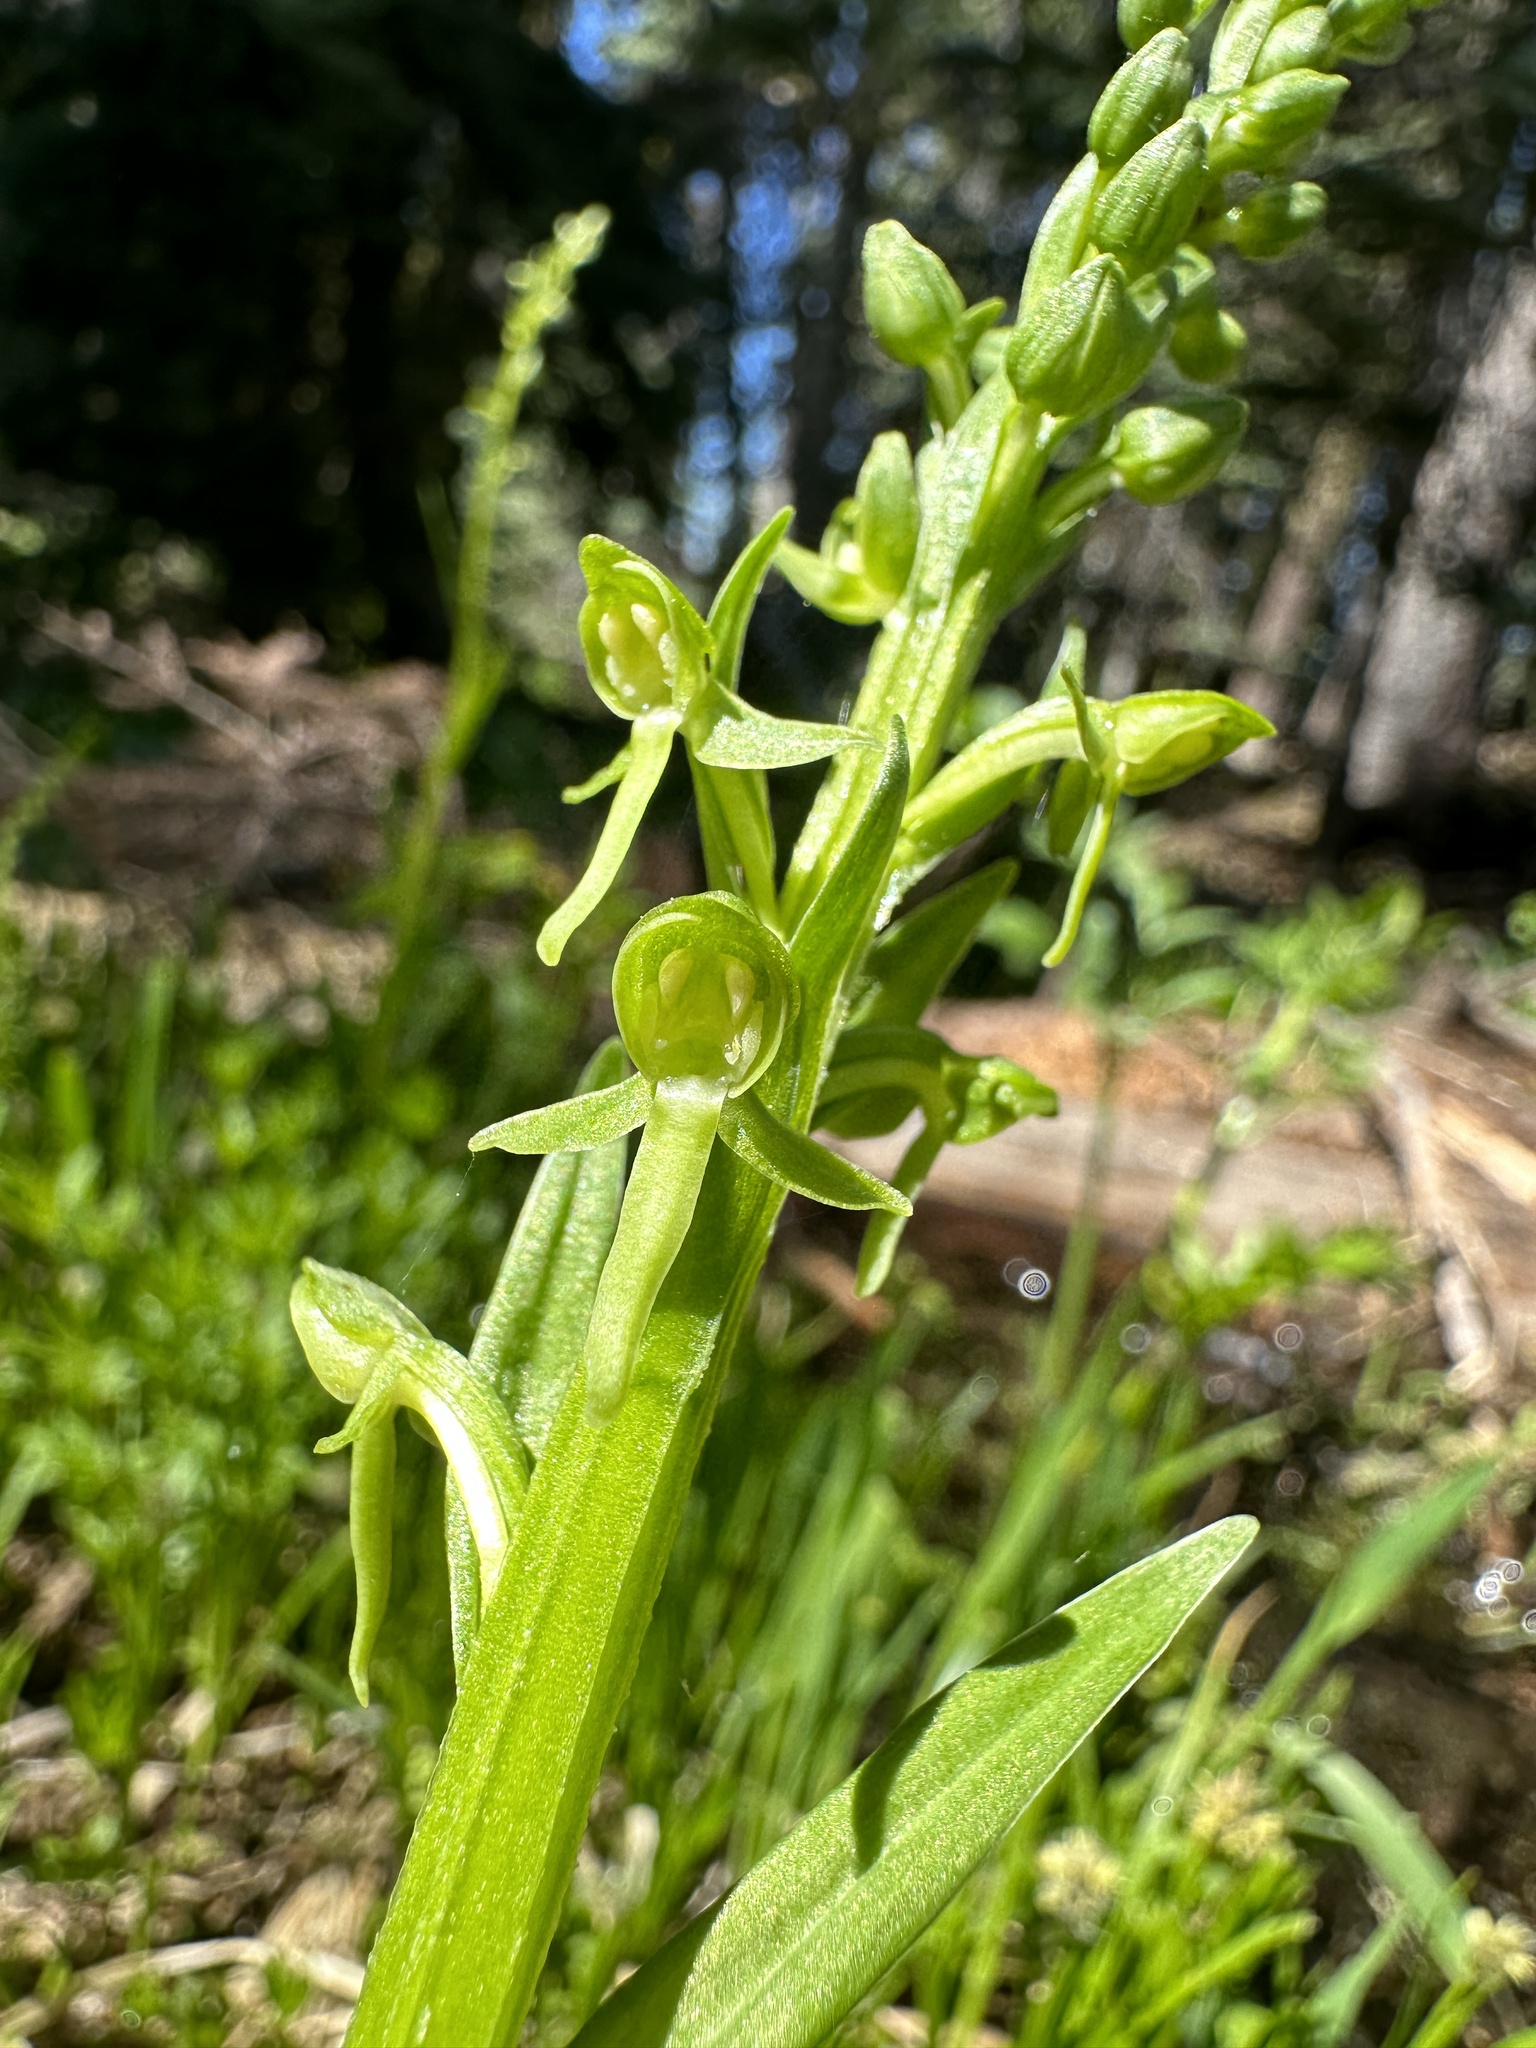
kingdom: Plantae
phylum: Tracheophyta
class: Liliopsida
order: Asparagales
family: Orchidaceae
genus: Platanthera
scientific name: Platanthera sparsiflora
